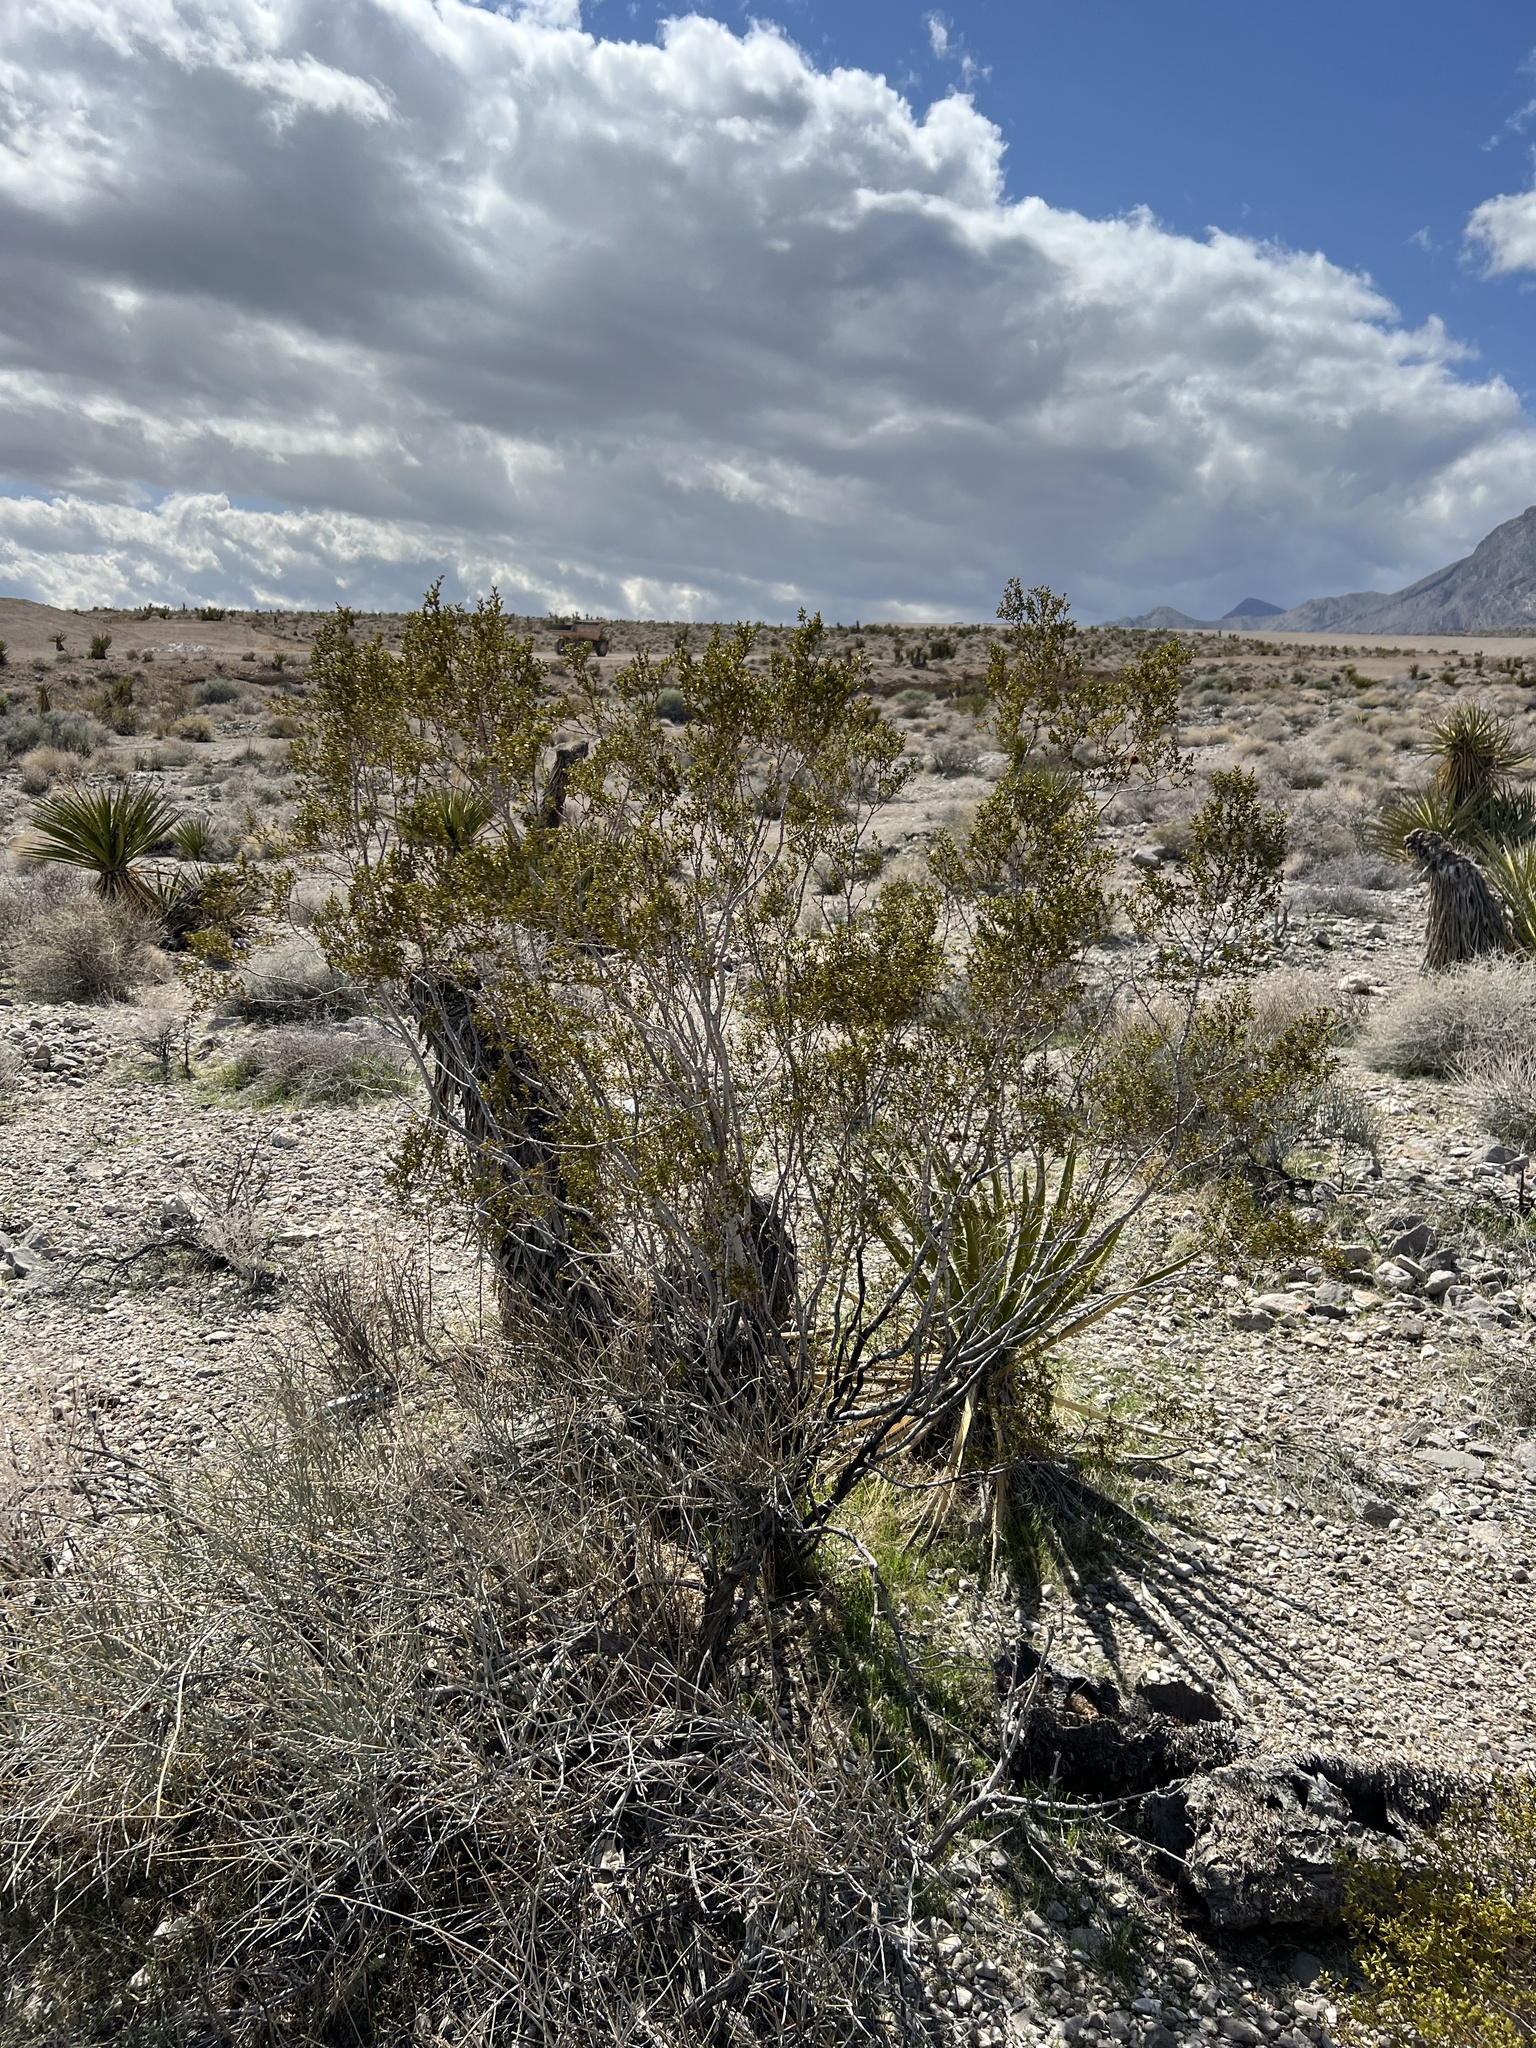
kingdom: Plantae
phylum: Tracheophyta
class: Magnoliopsida
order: Zygophyllales
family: Zygophyllaceae
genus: Larrea
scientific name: Larrea tridentata
